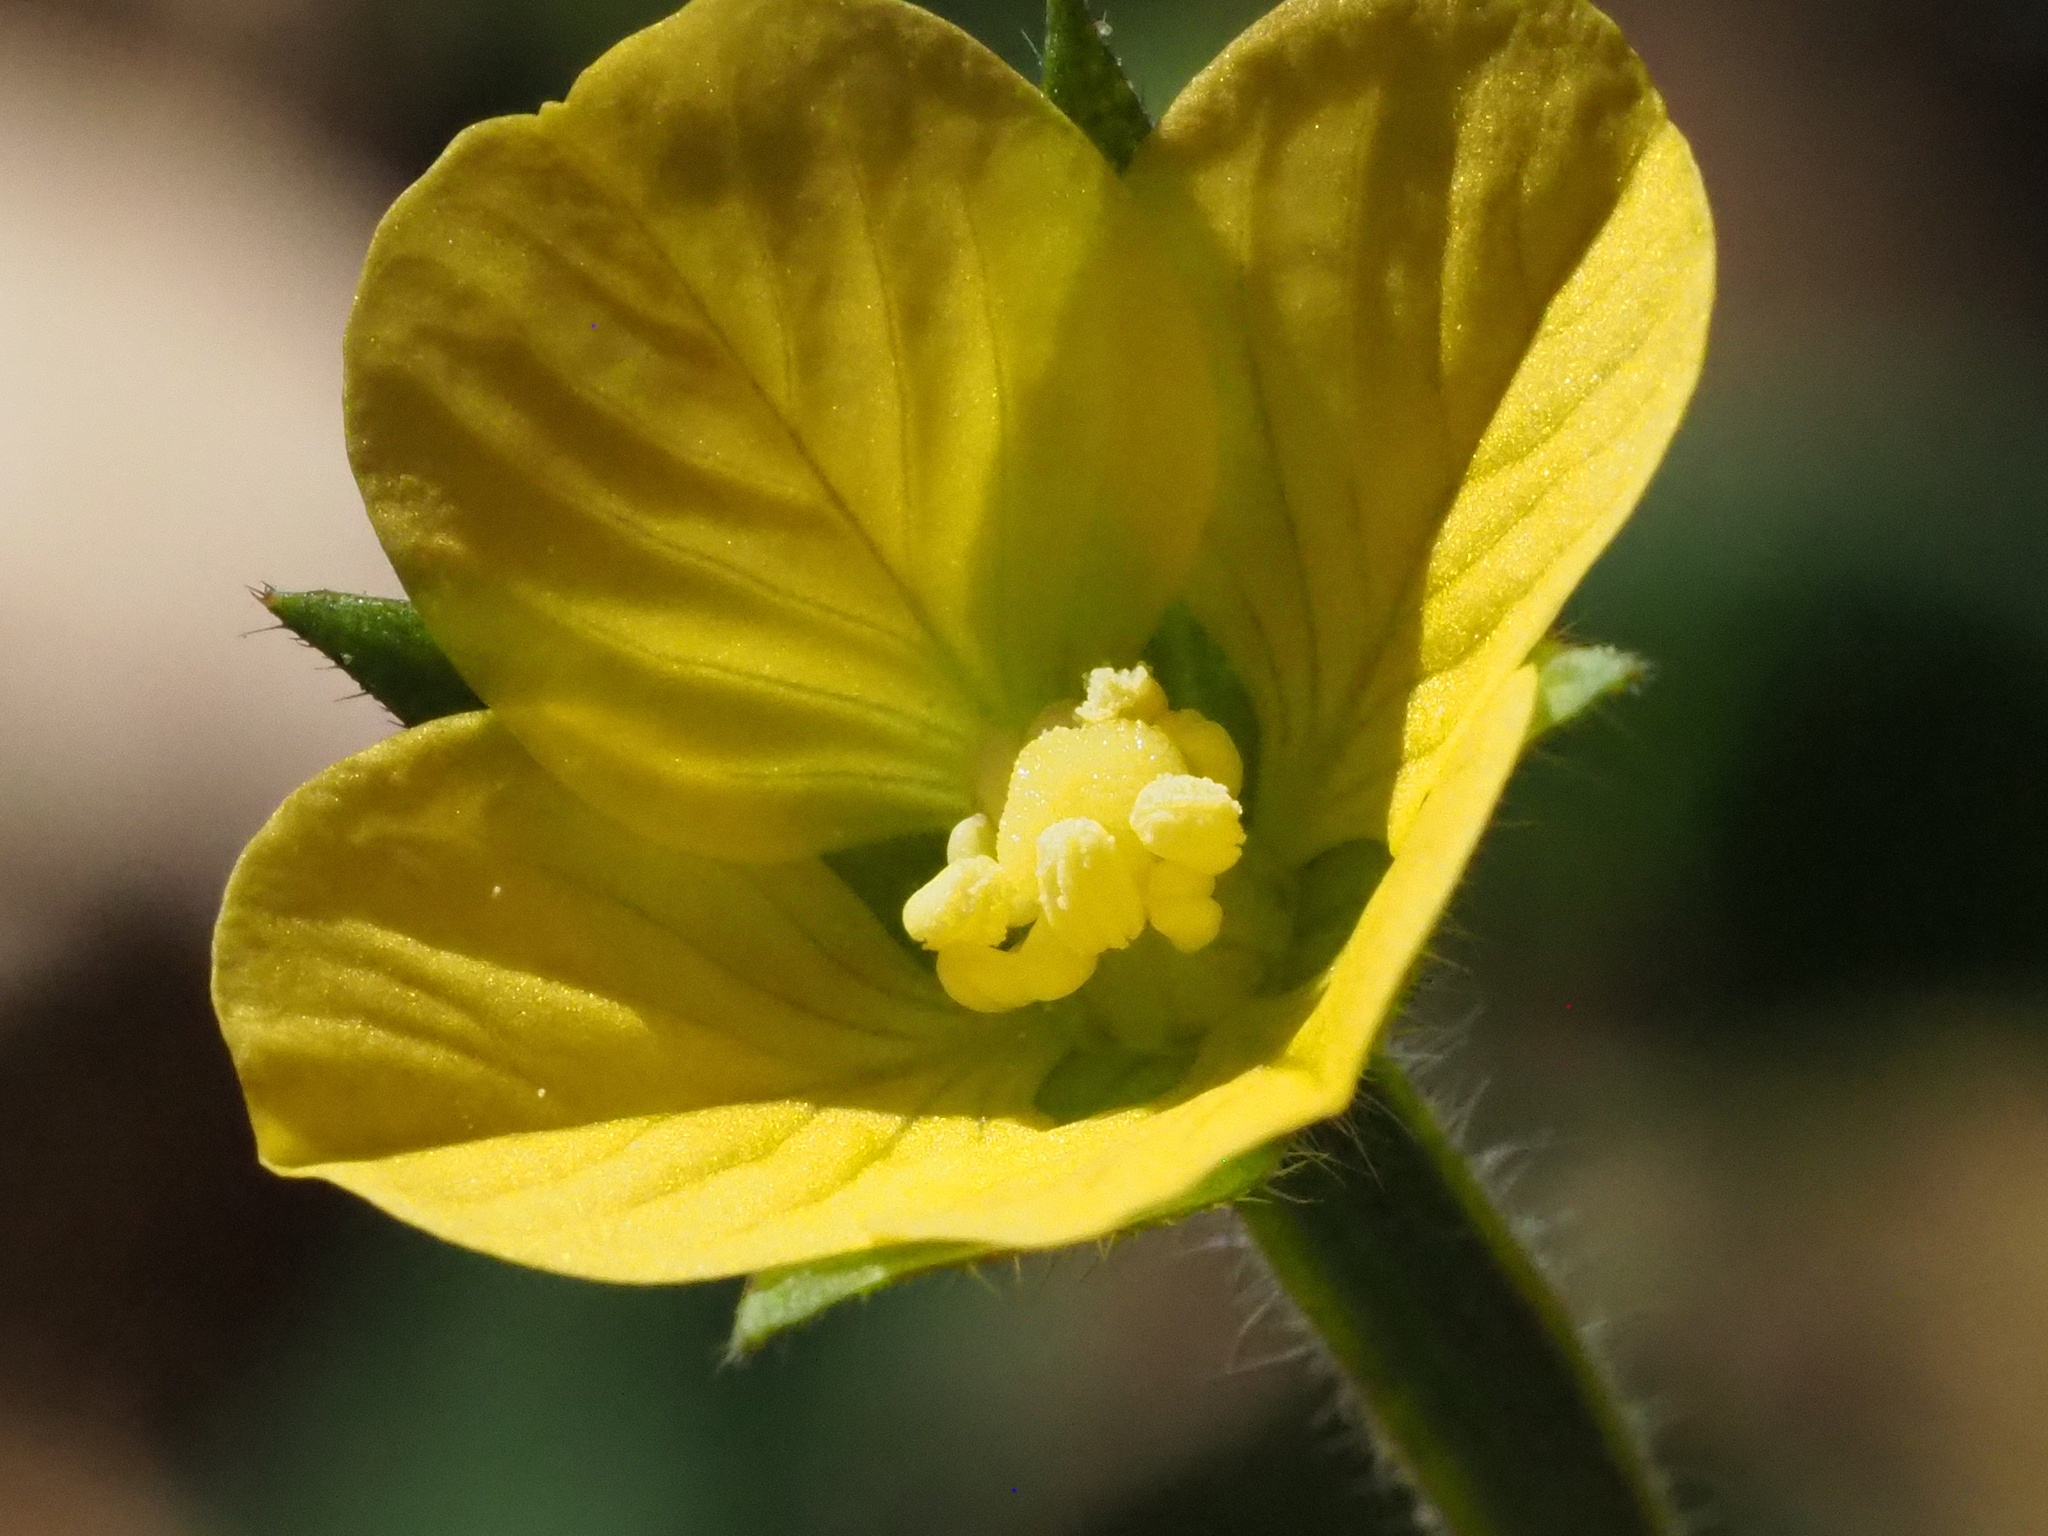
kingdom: Plantae
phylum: Tracheophyta
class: Magnoliopsida
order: Myrtales
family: Onagraceae
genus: Ludwigia
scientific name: Ludwigia octovalvis
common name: Water-primrose
